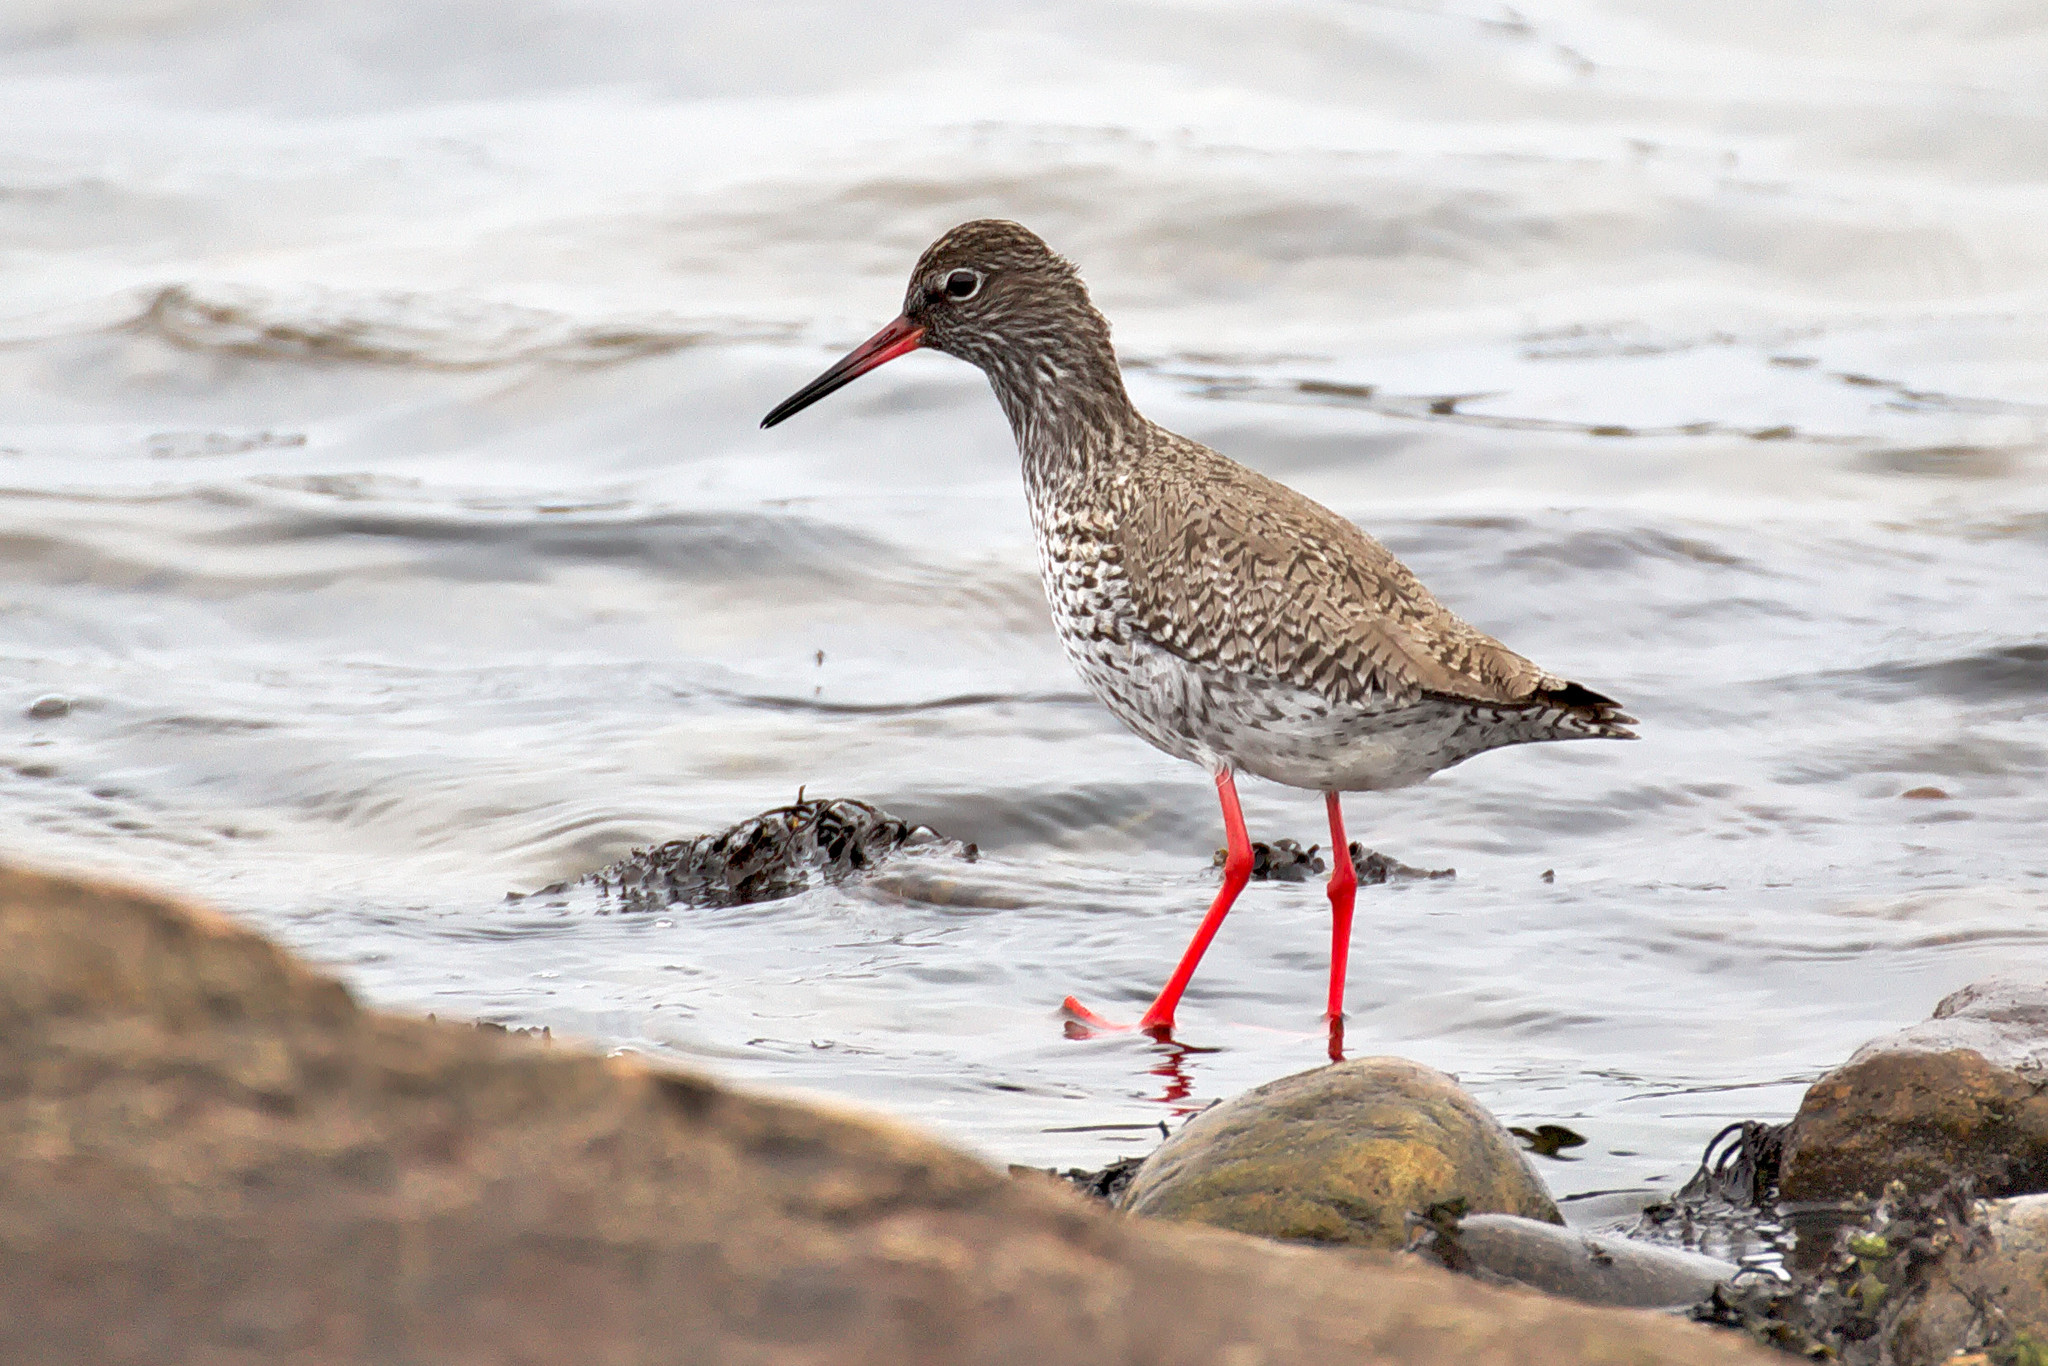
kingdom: Animalia
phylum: Chordata
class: Aves
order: Charadriiformes
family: Scolopacidae
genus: Tringa
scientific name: Tringa totanus
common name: Common redshank
